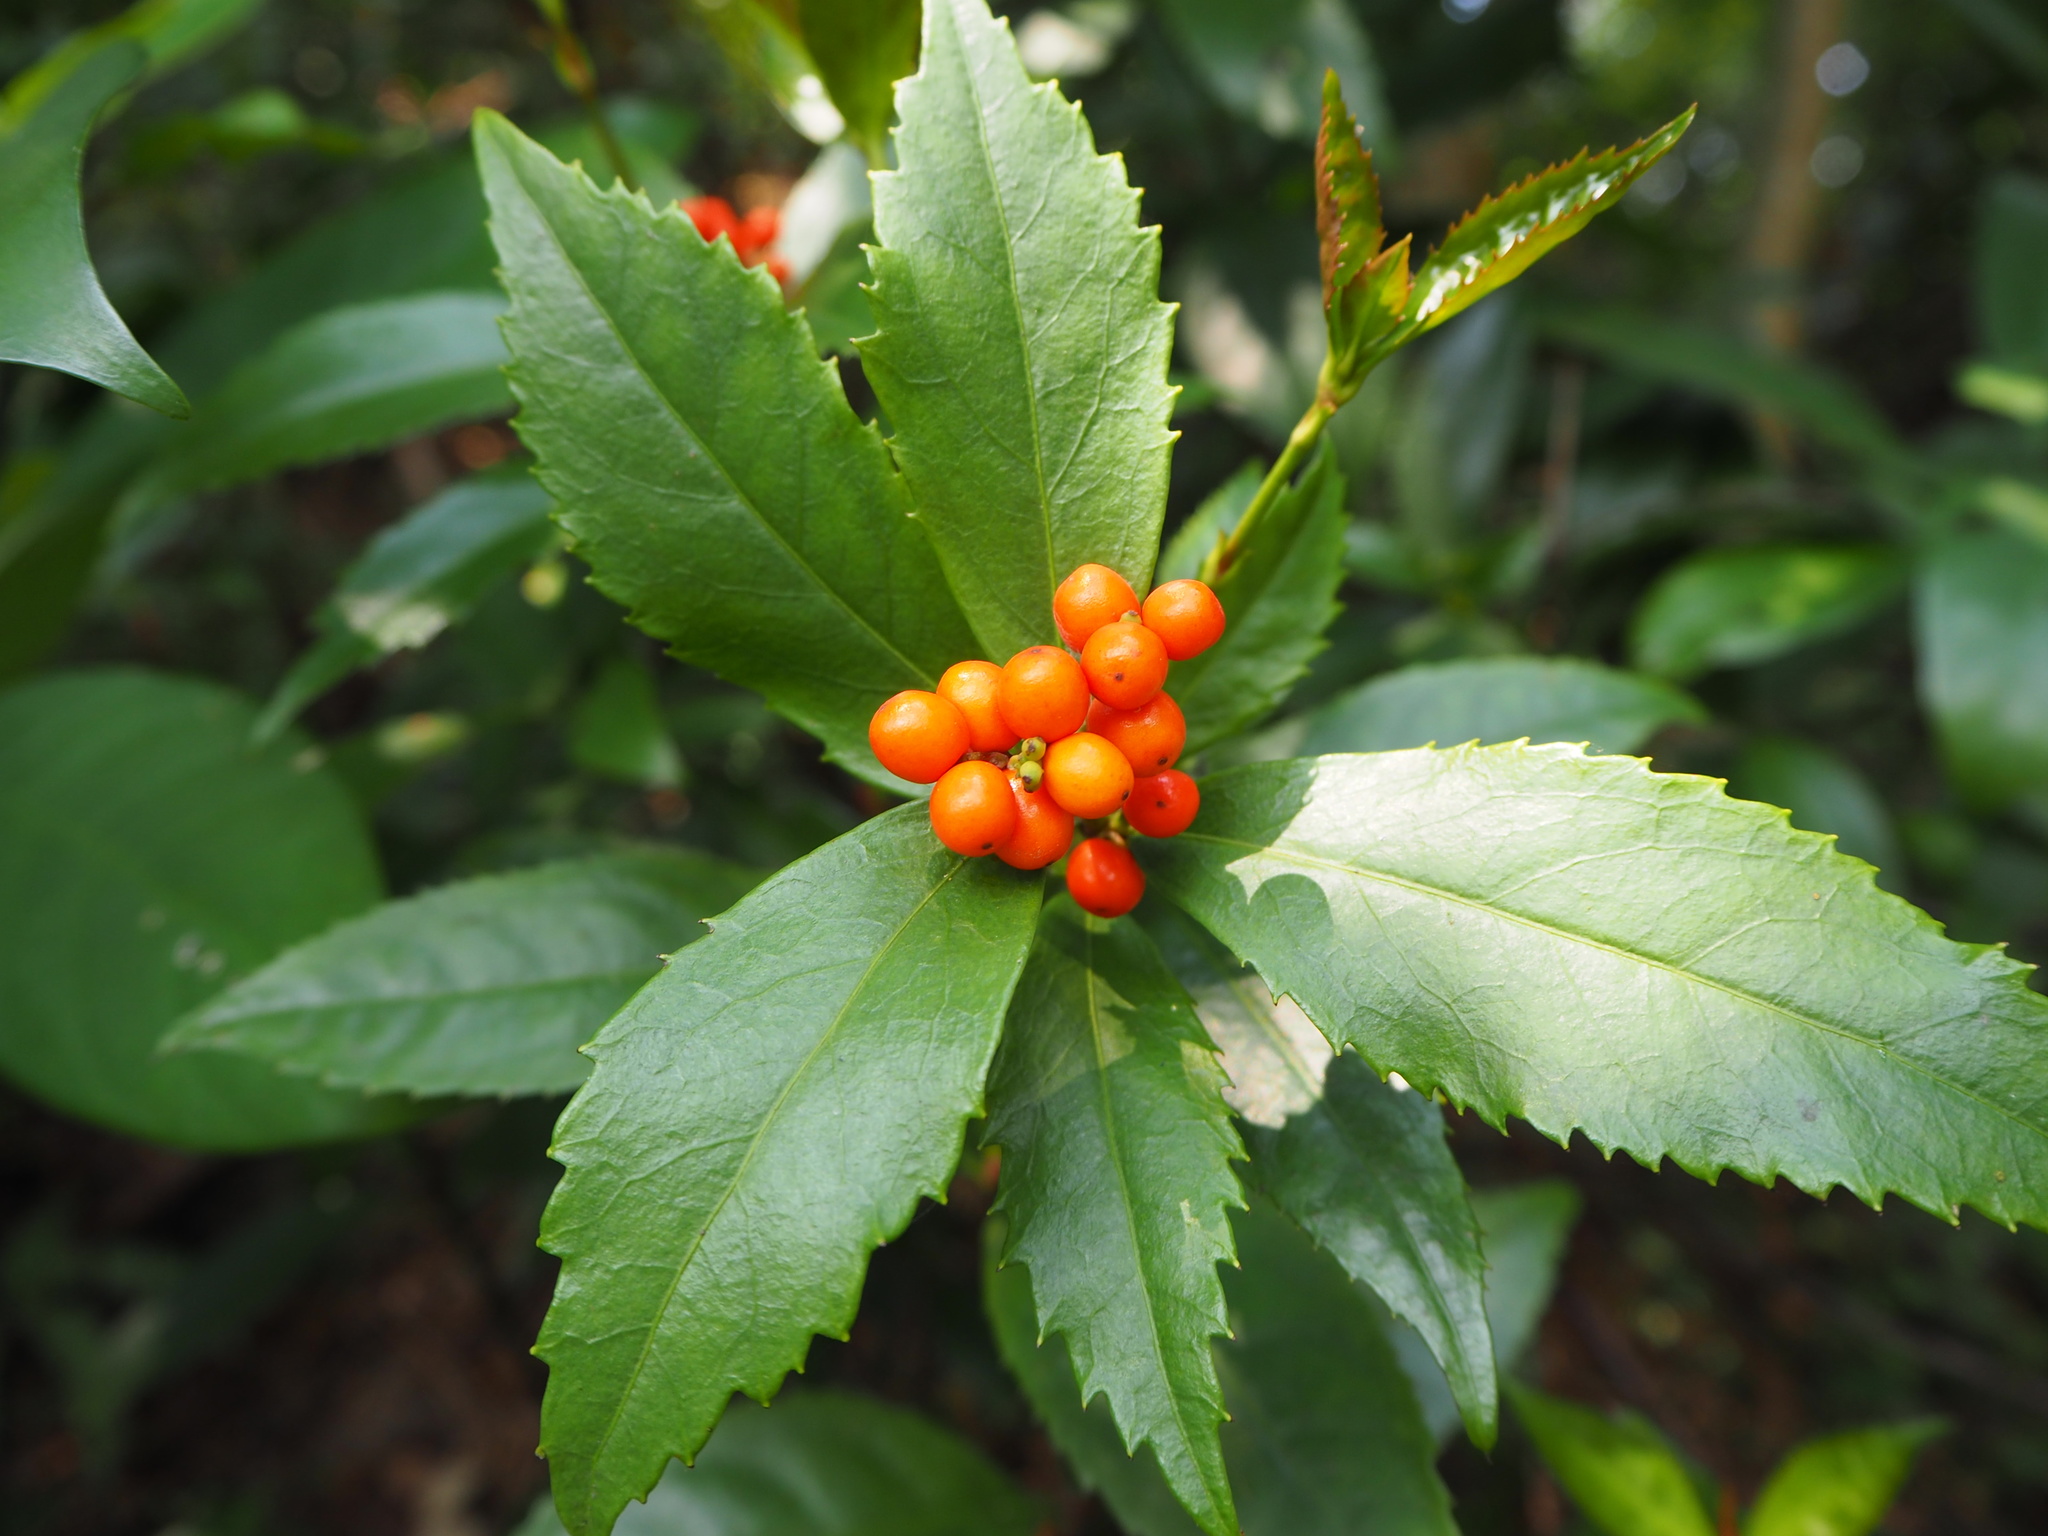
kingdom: Plantae
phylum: Tracheophyta
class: Magnoliopsida
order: Chloranthales
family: Chloranthaceae
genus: Sarcandra
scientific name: Sarcandra glabra
